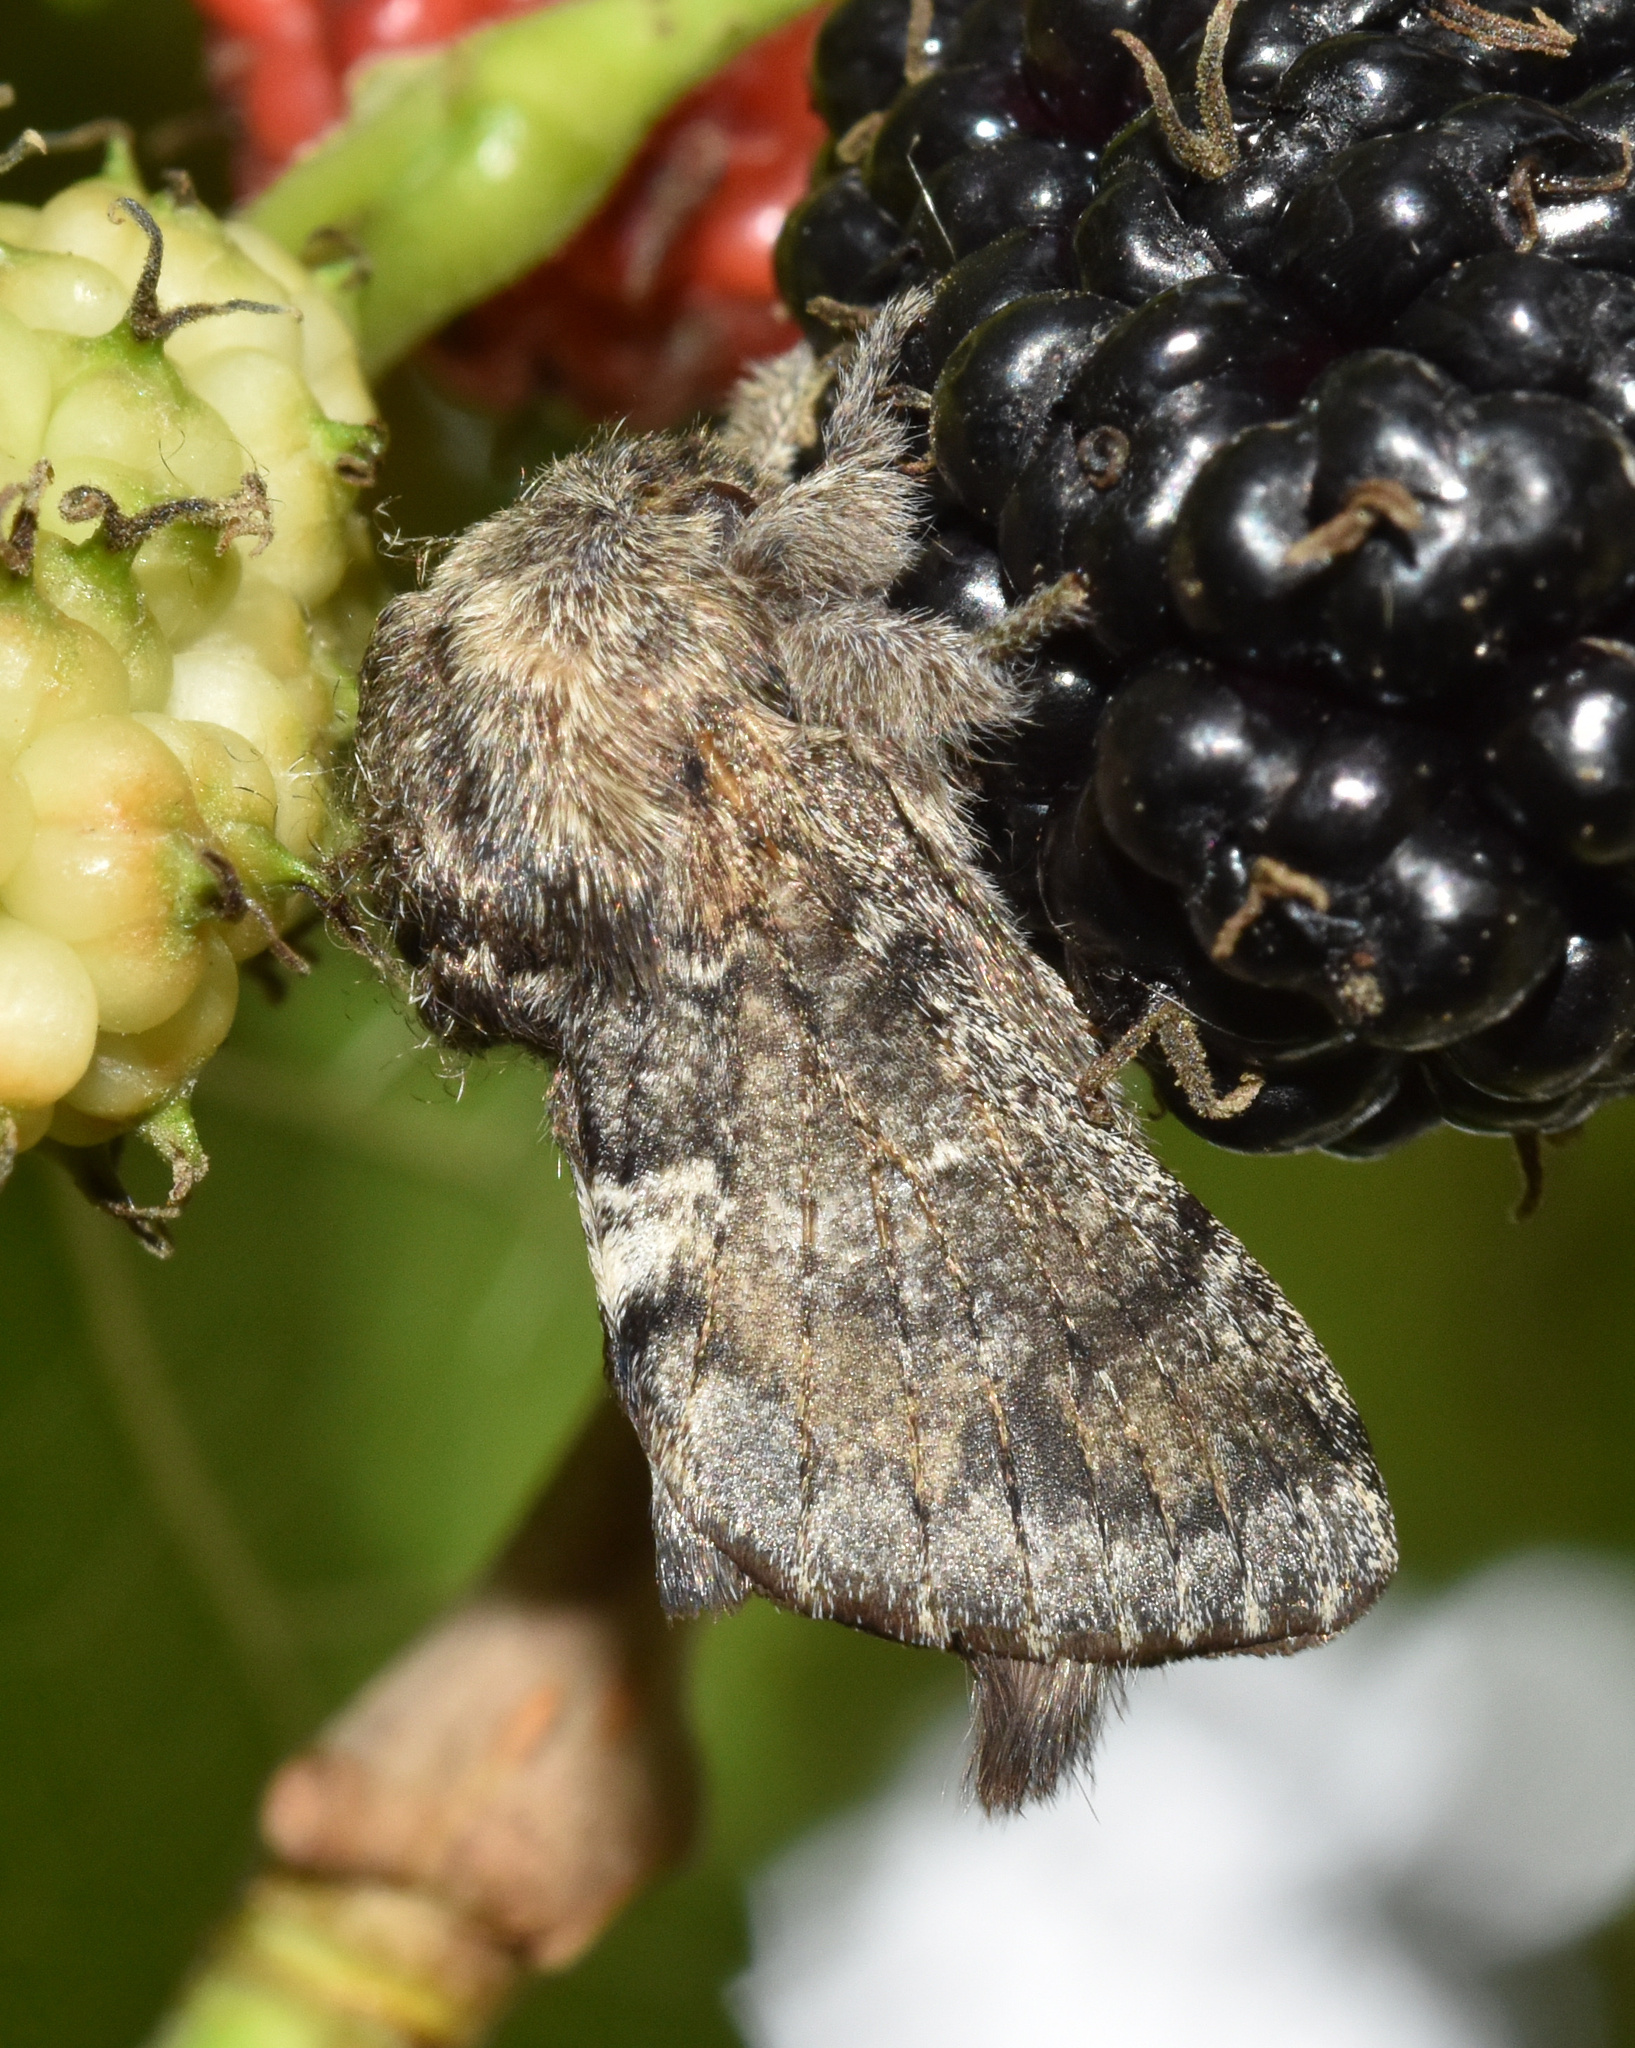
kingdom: Animalia
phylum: Arthropoda
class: Insecta
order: Lepidoptera
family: Lasiocampidae
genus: Anadiasa
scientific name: Anadiasa affinis
